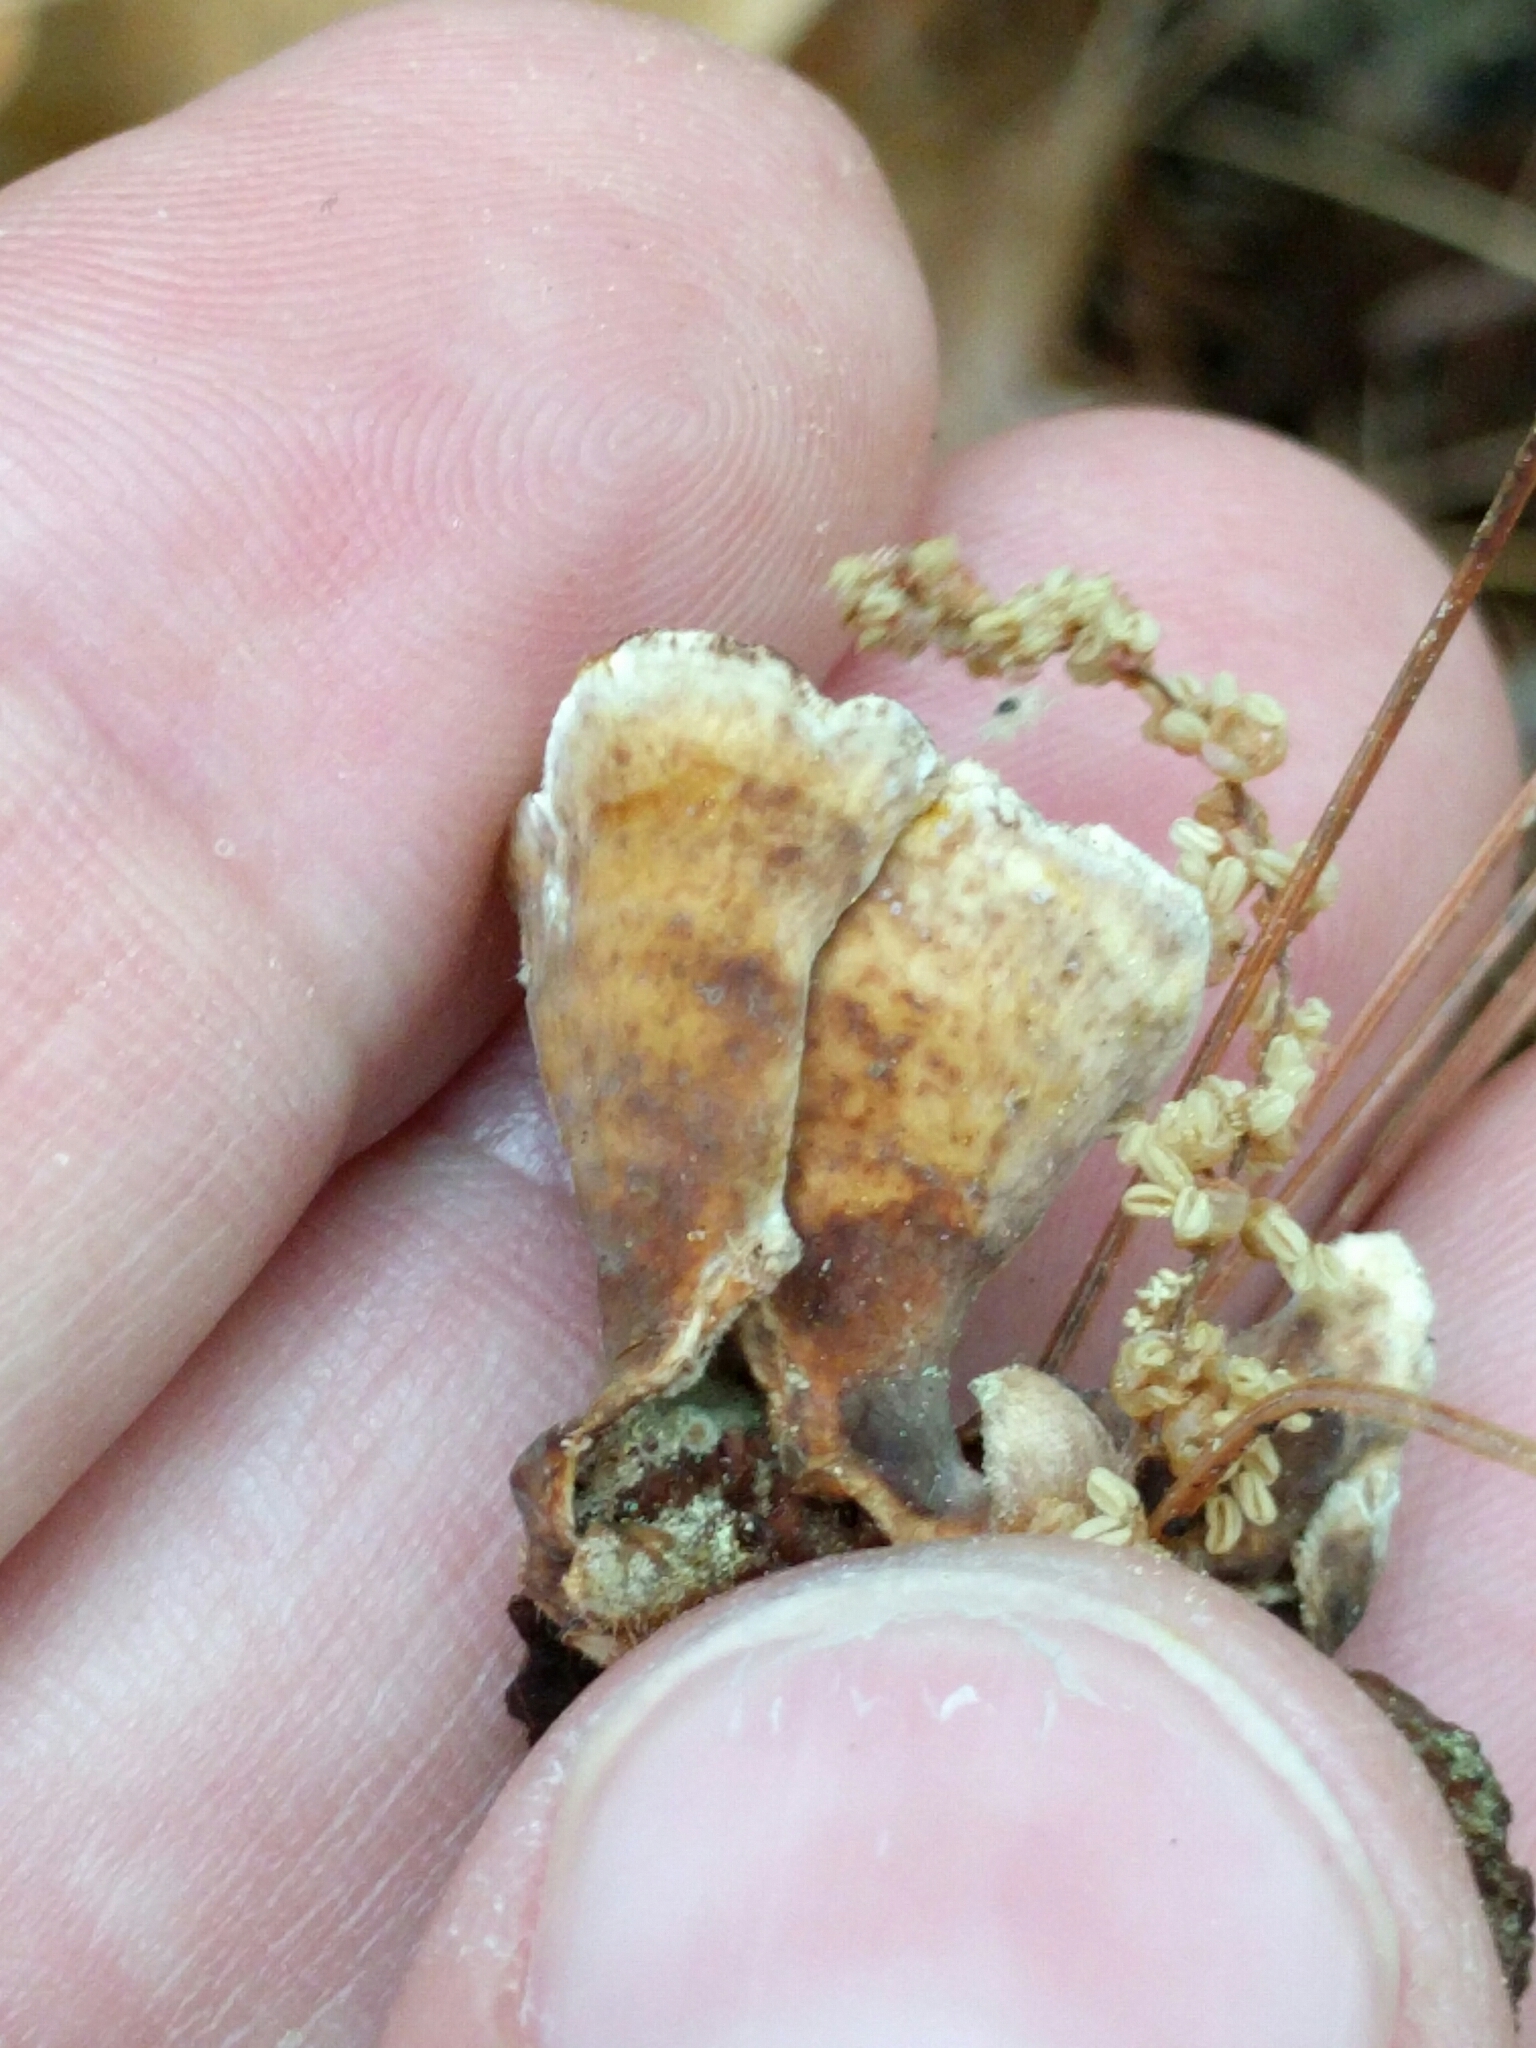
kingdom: Fungi
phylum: Basidiomycota
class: Agaricomycetes
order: Russulales
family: Stereaceae
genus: Stereum
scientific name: Stereum ostrea
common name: False turkeytail
